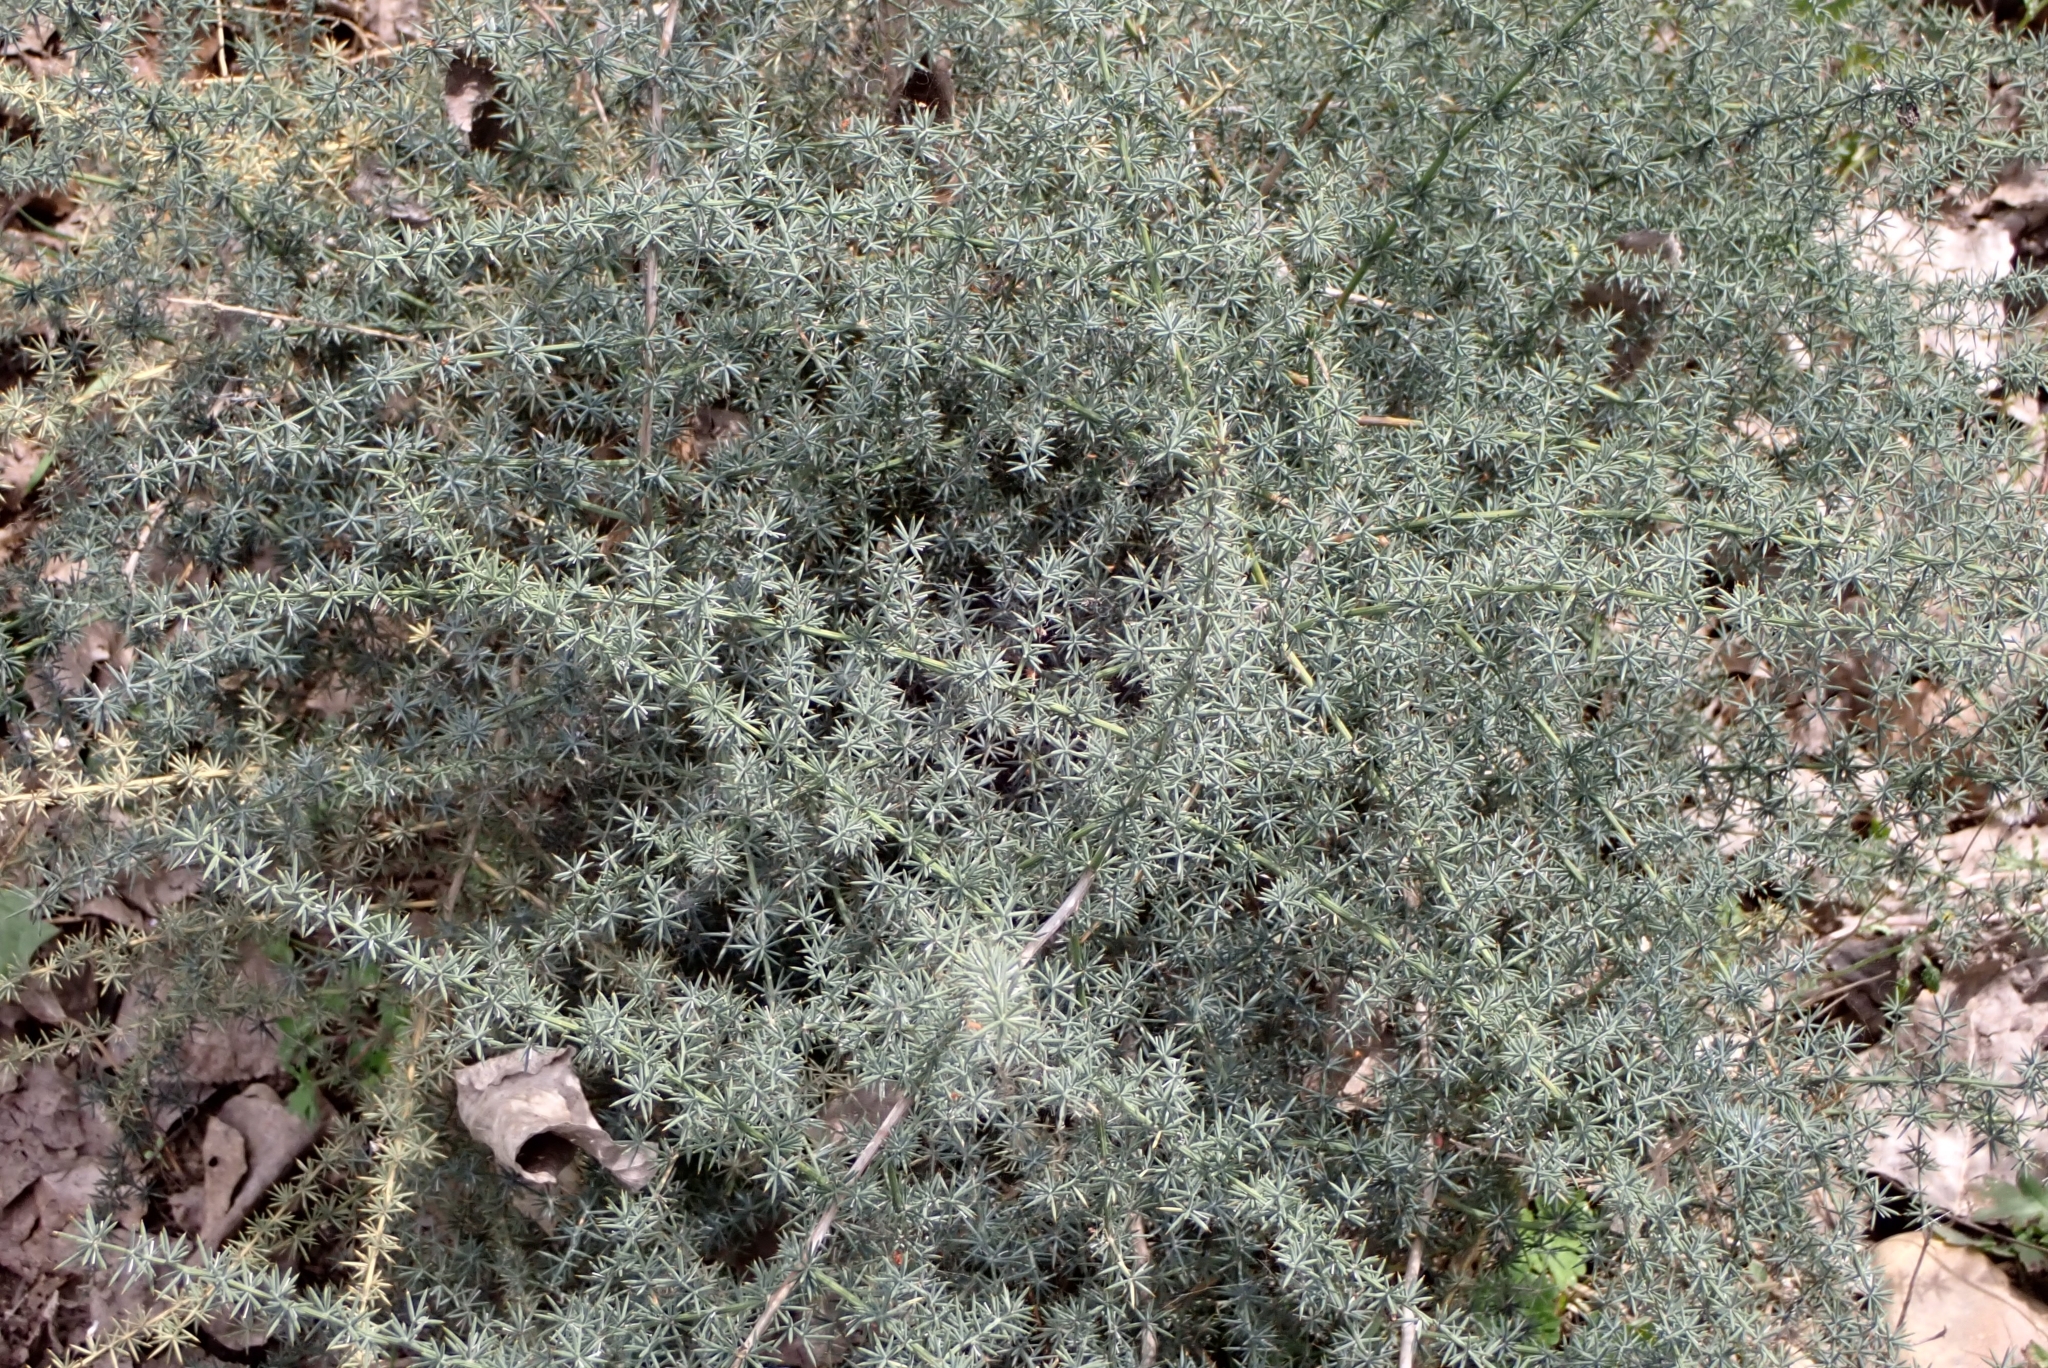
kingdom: Plantae
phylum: Tracheophyta
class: Liliopsida
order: Asparagales
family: Asparagaceae
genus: Asparagus
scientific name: Asparagus acutifolius
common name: Wild asparagus
